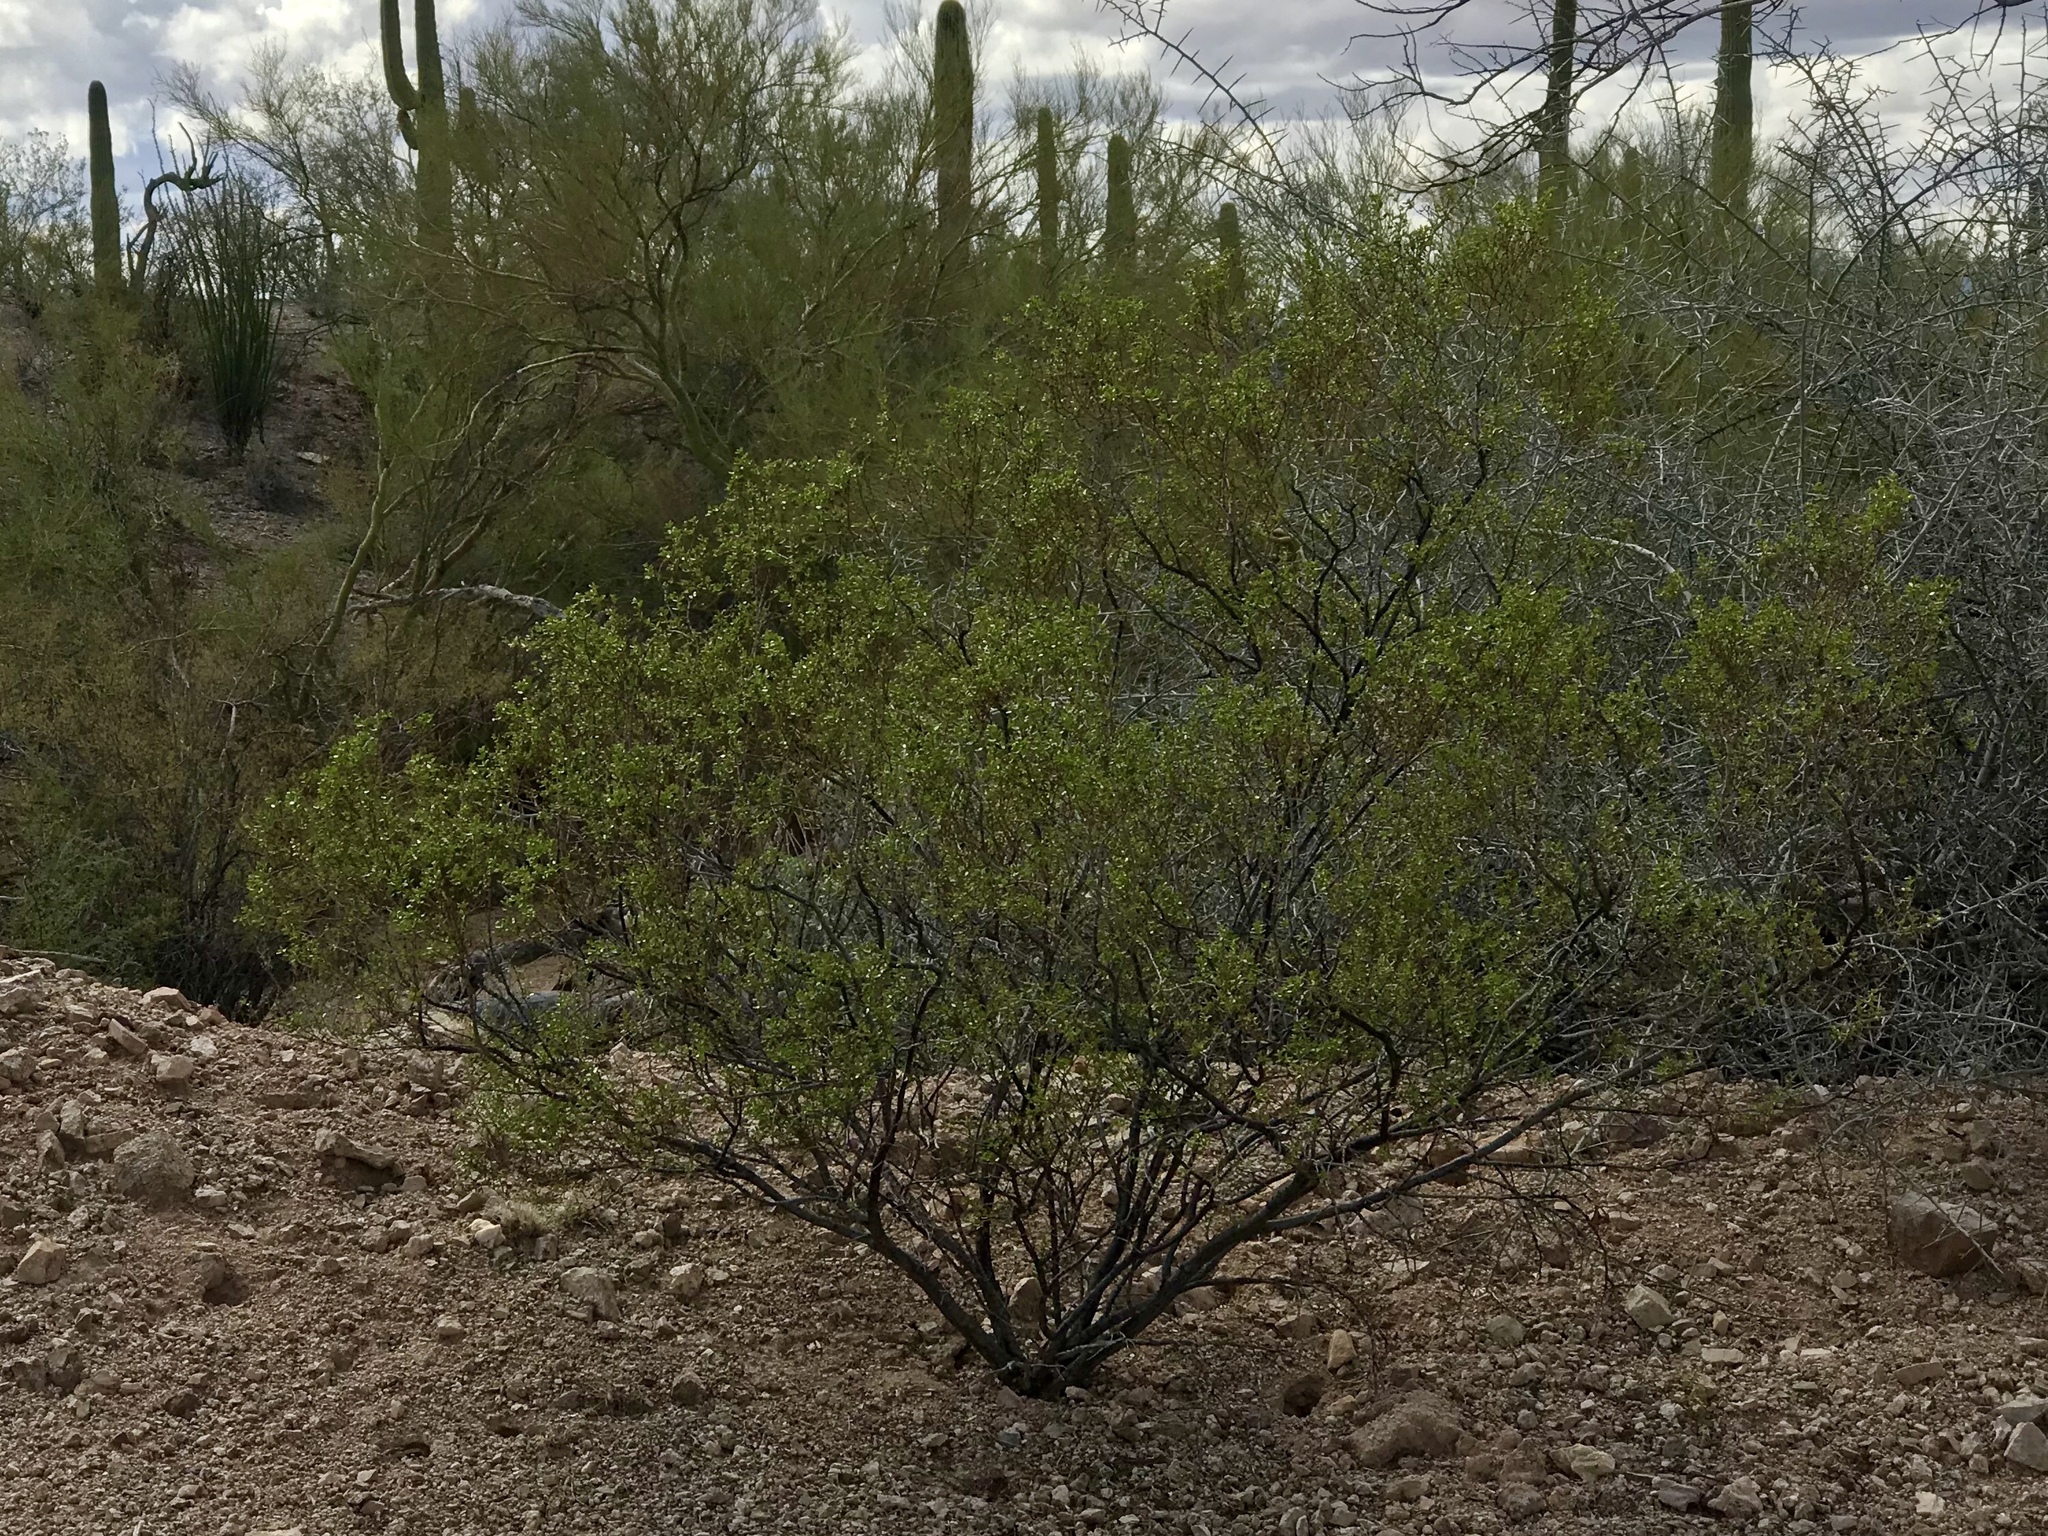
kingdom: Plantae
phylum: Tracheophyta
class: Magnoliopsida
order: Zygophyllales
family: Zygophyllaceae
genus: Larrea
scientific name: Larrea tridentata
